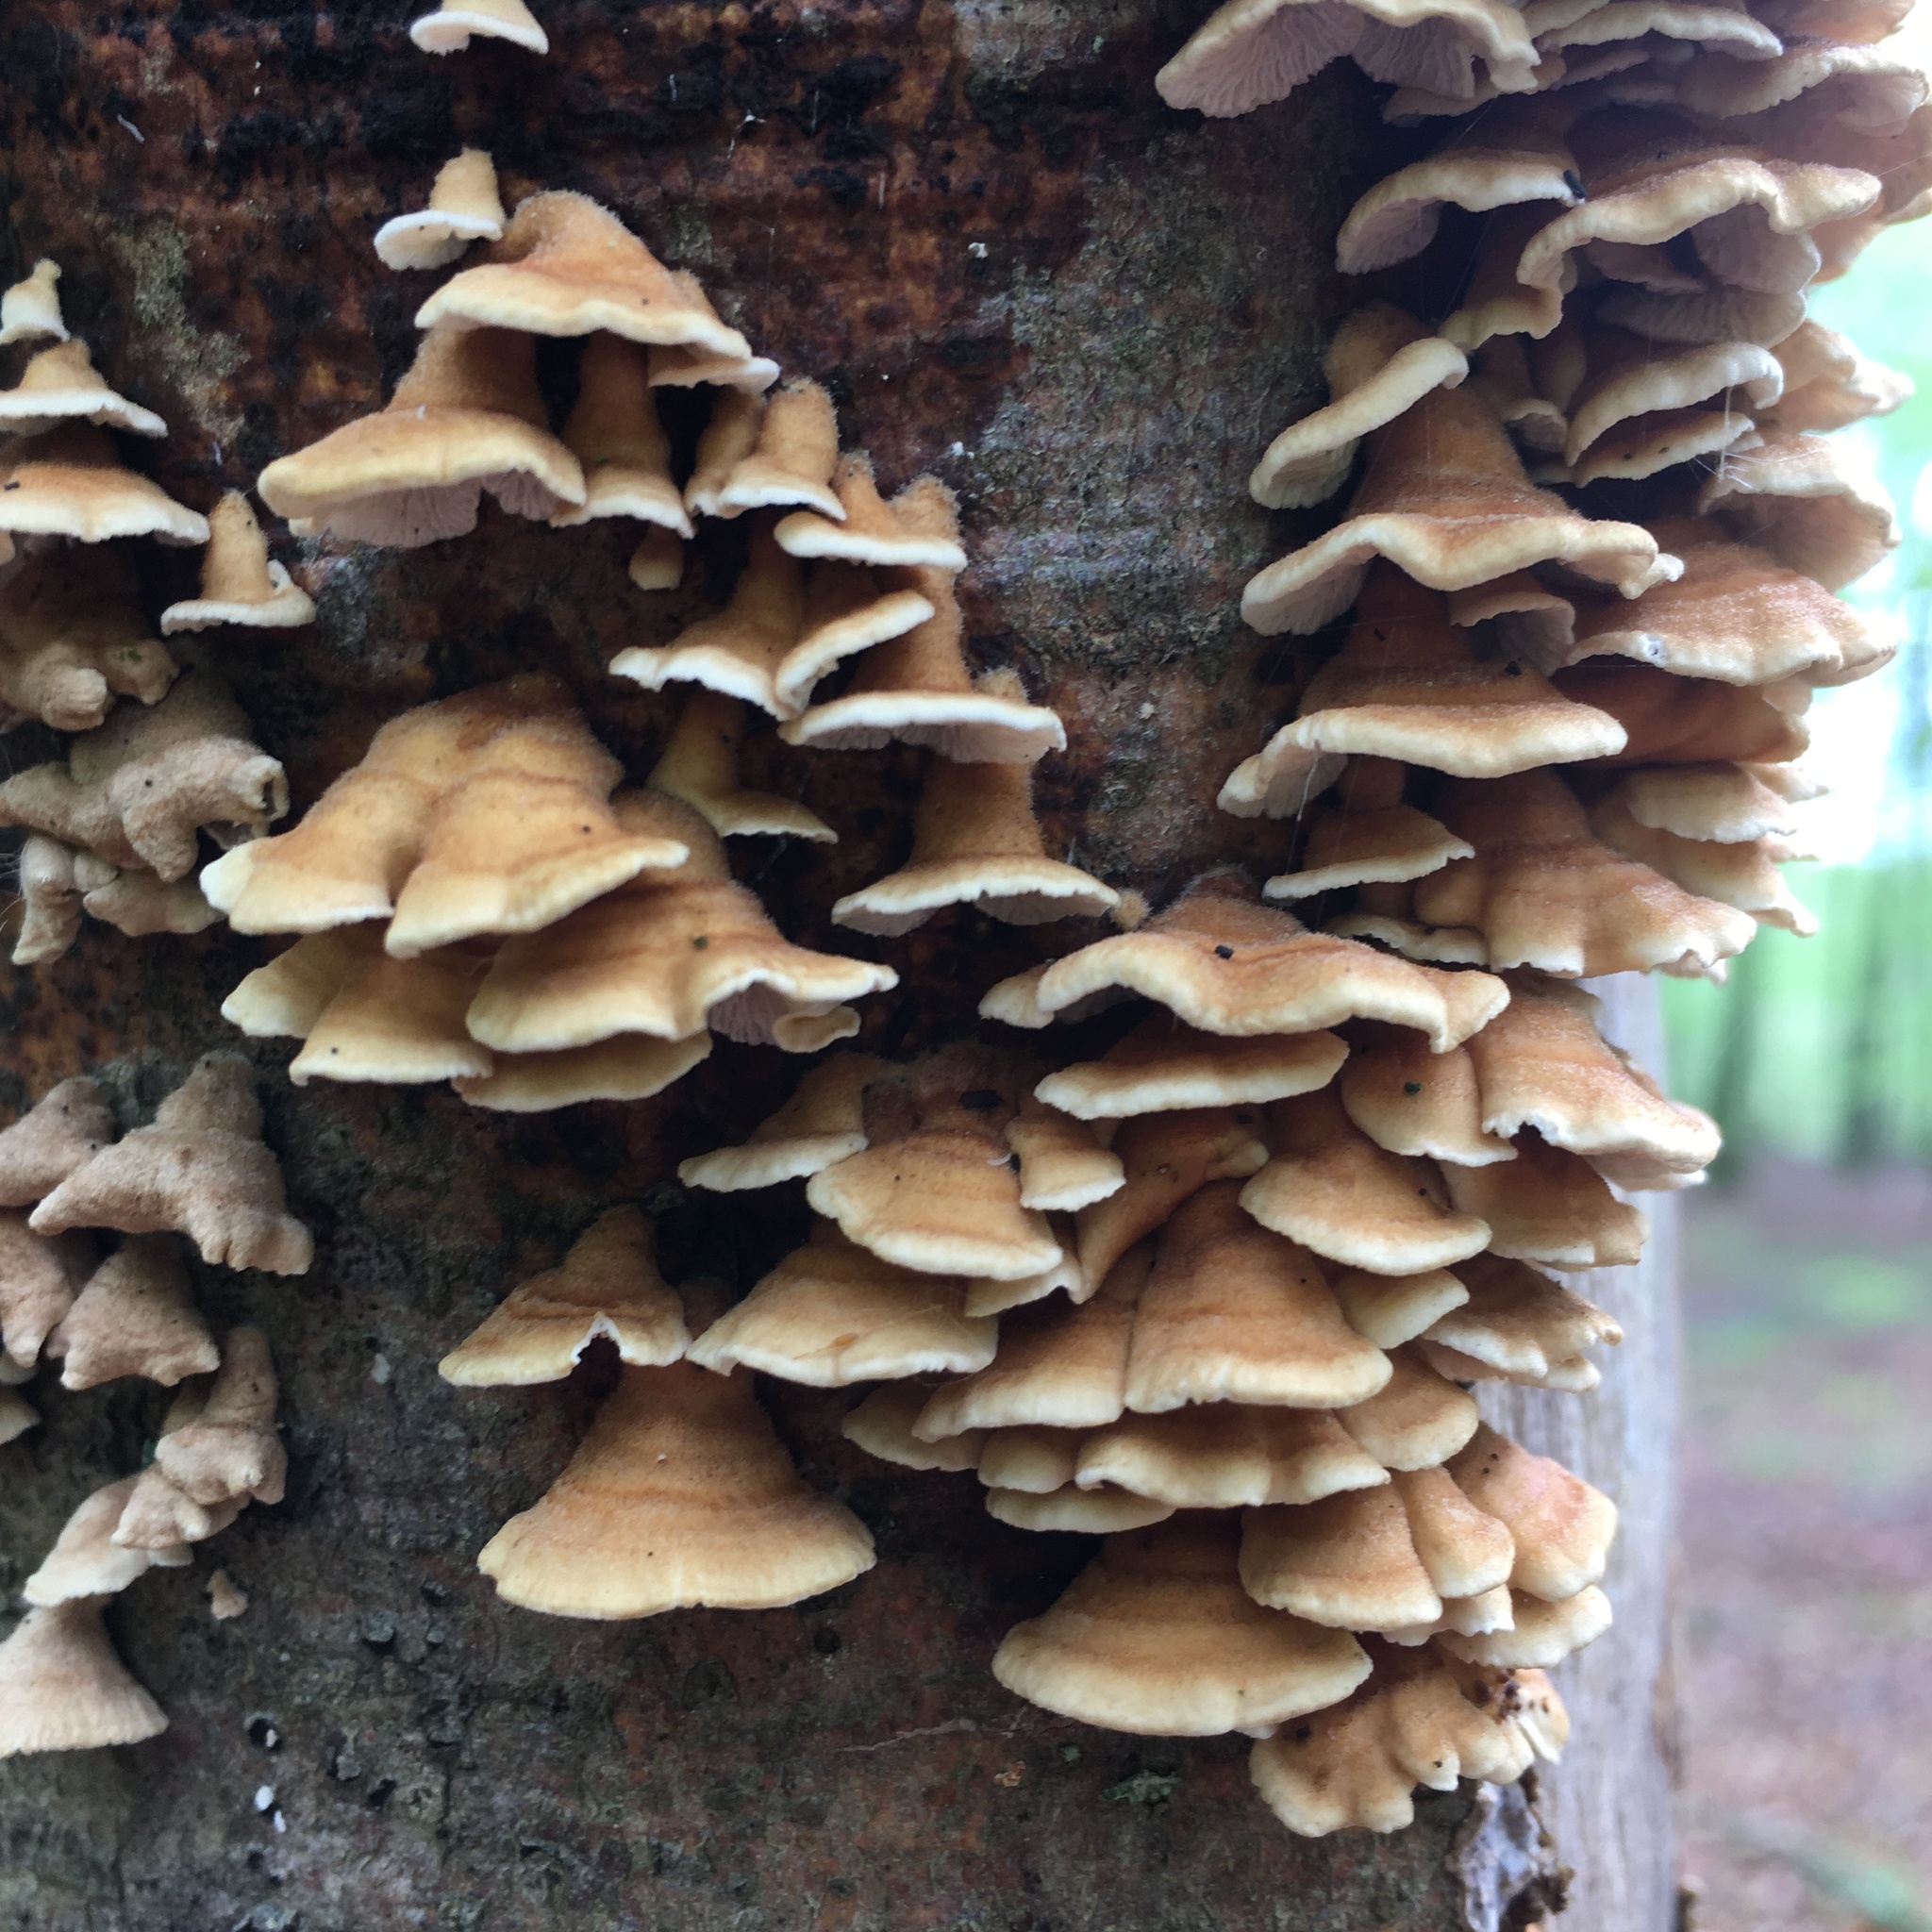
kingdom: Fungi
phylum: Basidiomycota
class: Agaricomycetes
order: Amylocorticiales
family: Amylocorticiaceae
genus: Plicaturopsis
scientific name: Plicaturopsis crispa
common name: Crimped gill
